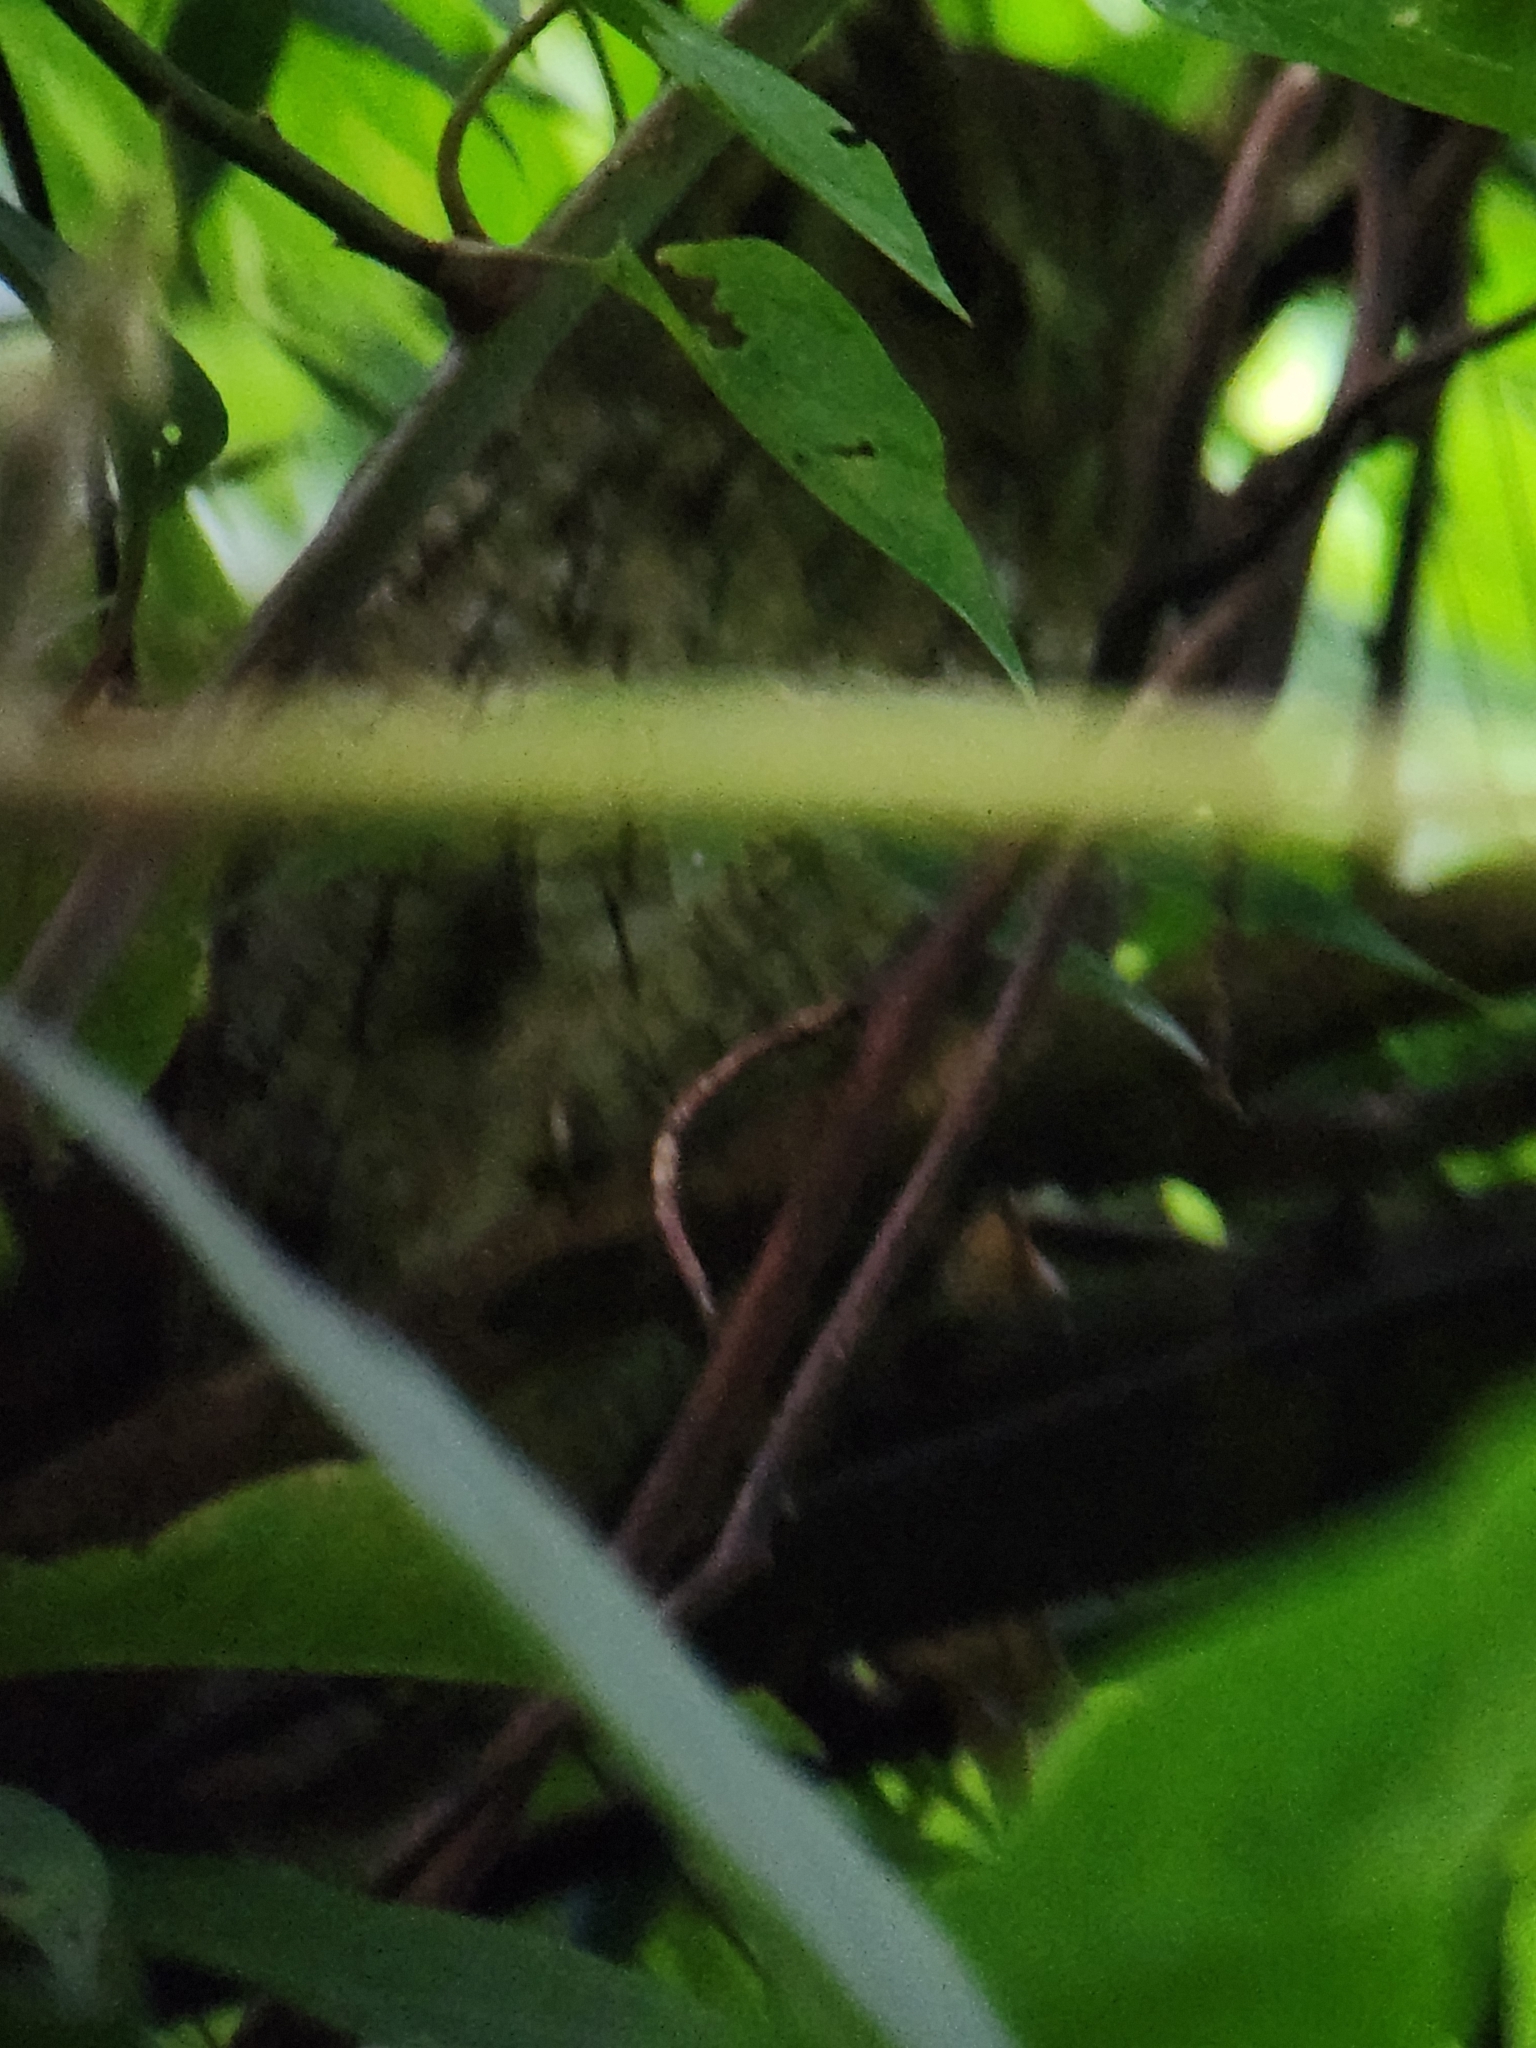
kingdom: Animalia
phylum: Chordata
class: Aves
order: Strigiformes
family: Strigidae
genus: Megascops
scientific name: Megascops choliba
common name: Tropical screech-owl
